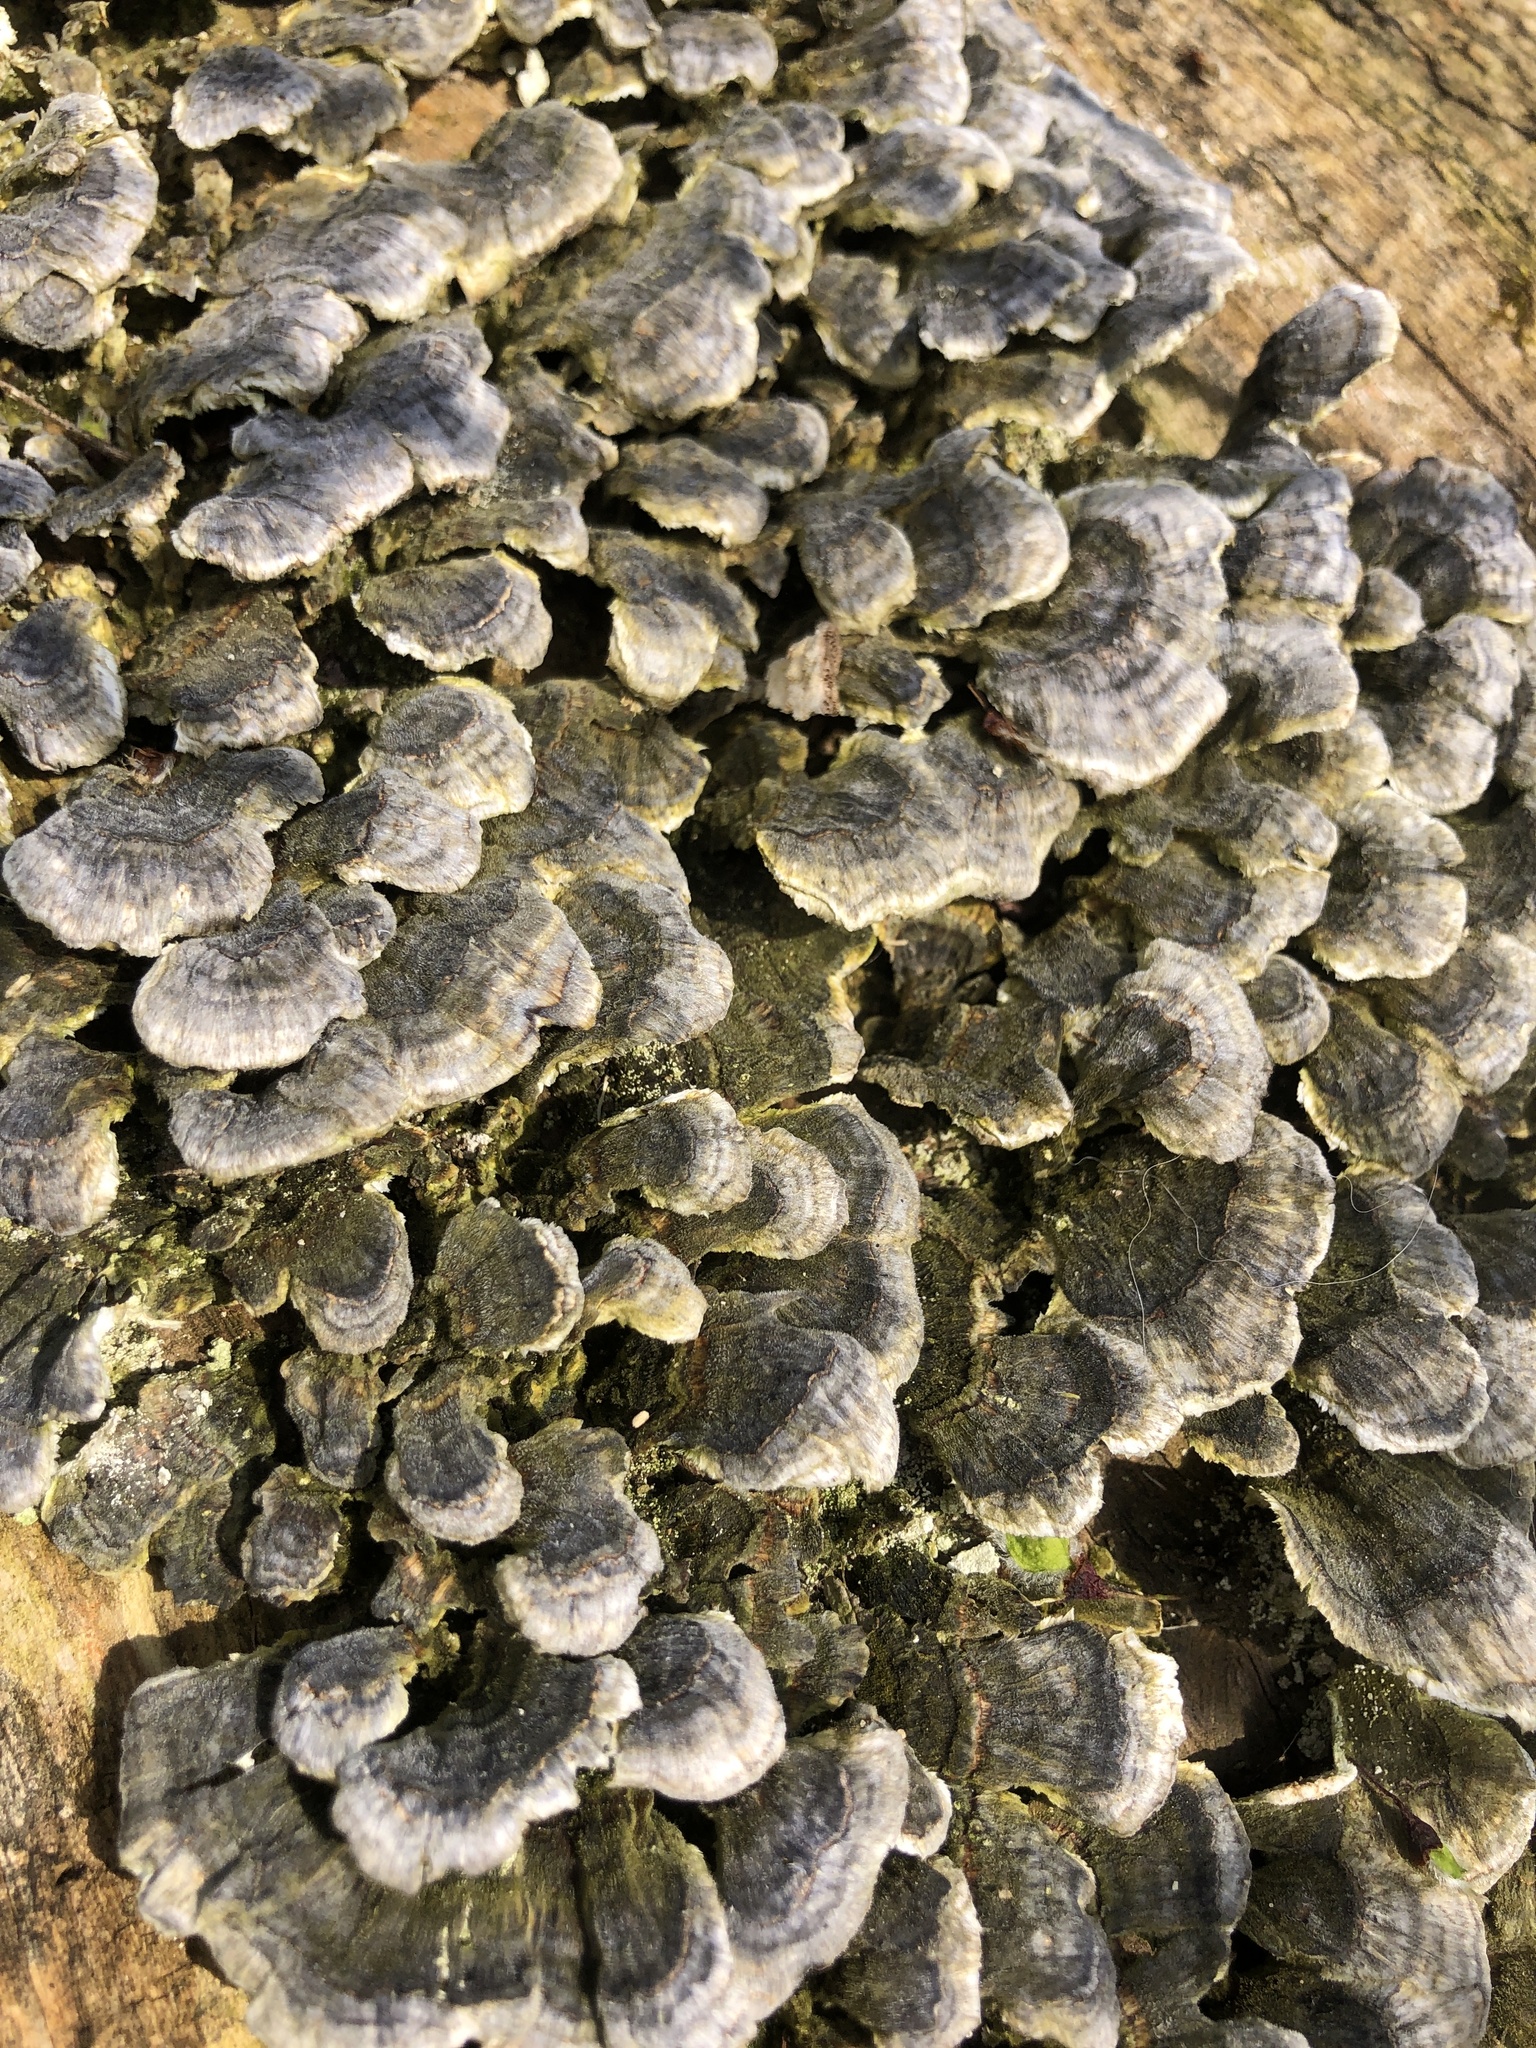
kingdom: Fungi
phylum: Basidiomycota
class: Agaricomycetes
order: Polyporales
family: Polyporaceae
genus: Trametes
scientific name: Trametes versicolor
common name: Turkeytail
